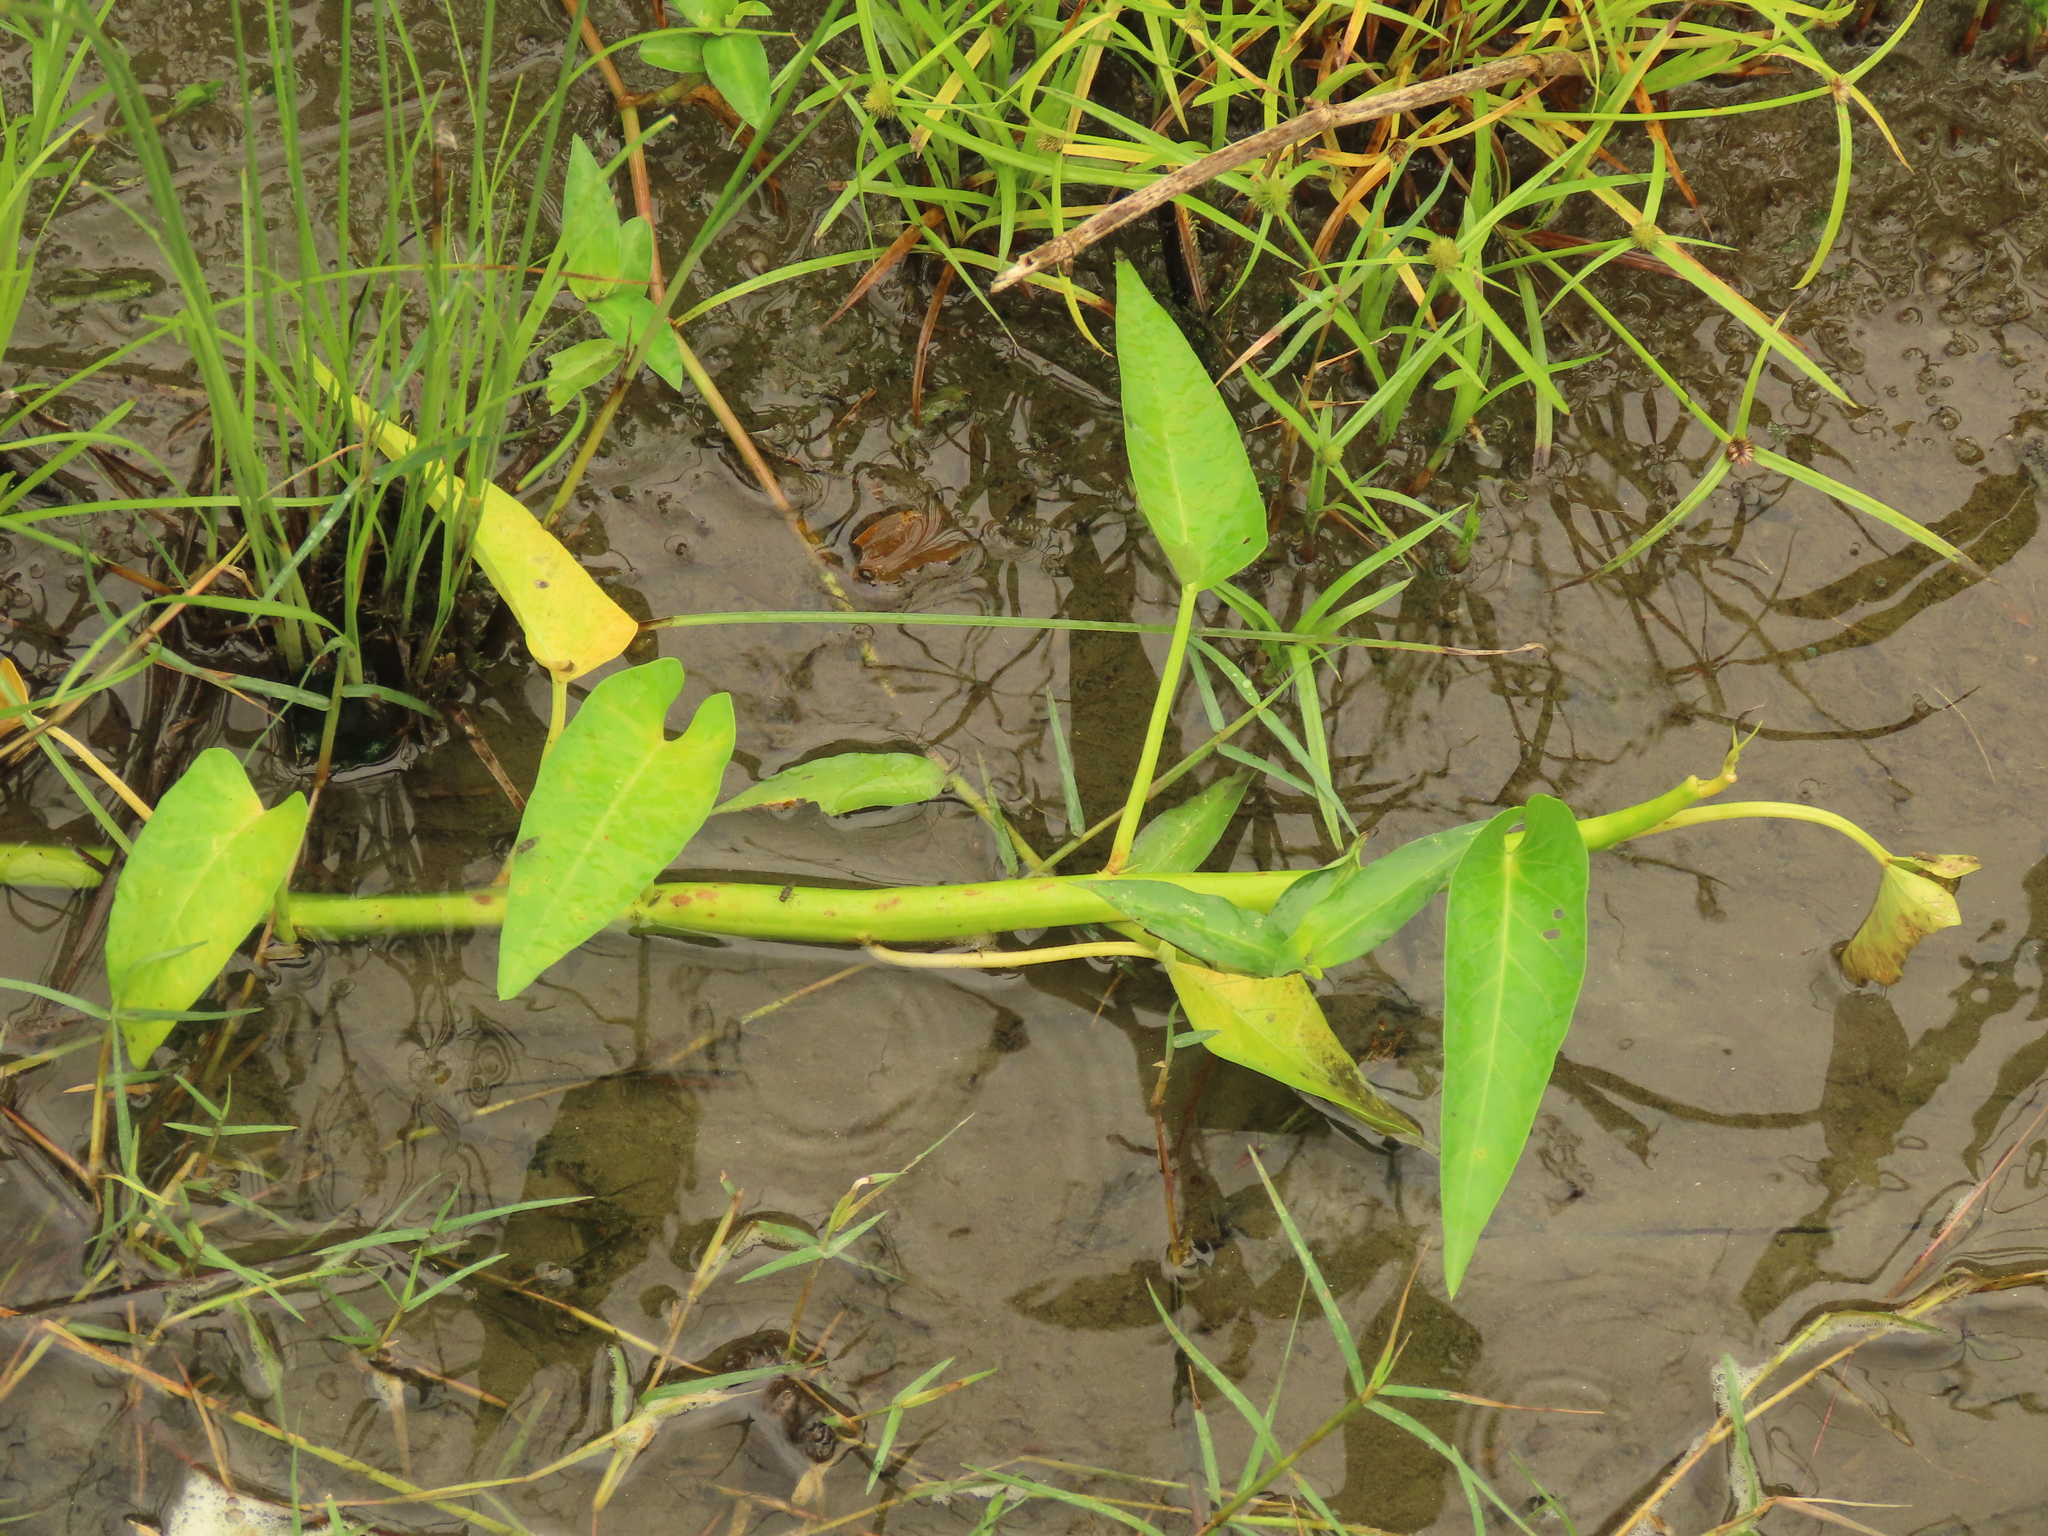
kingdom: Plantae
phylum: Tracheophyta
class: Magnoliopsida
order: Solanales
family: Convolvulaceae
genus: Ipomoea
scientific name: Ipomoea aquatica
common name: Swamp morning-glory
